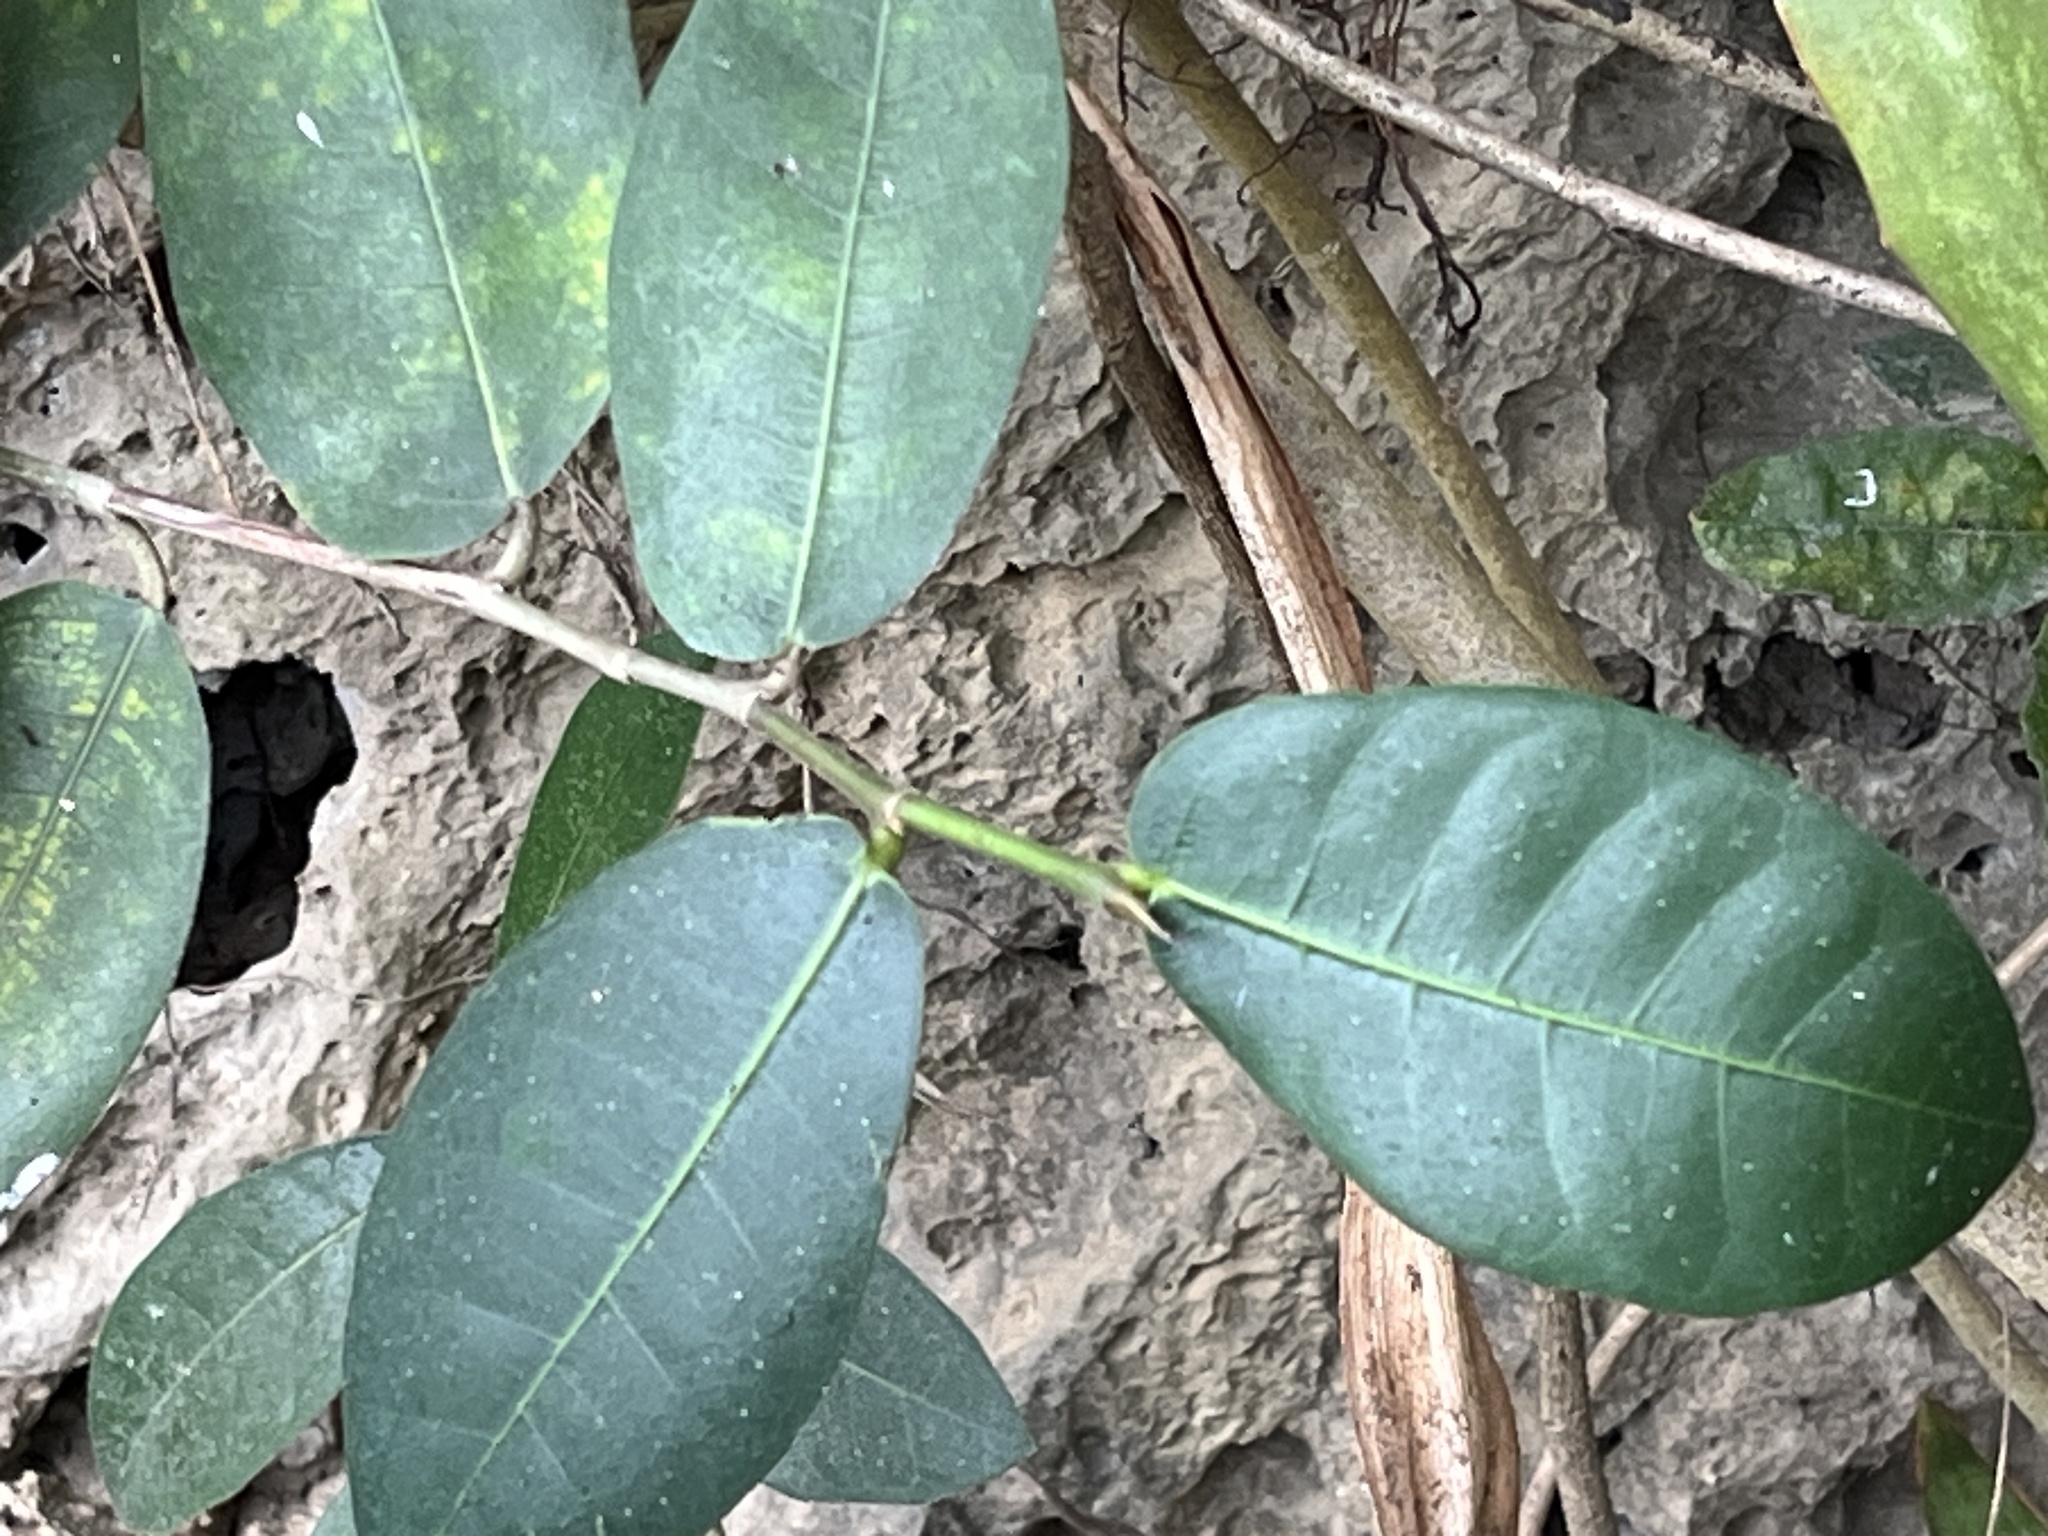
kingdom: Plantae
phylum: Tracheophyta
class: Magnoliopsida
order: Rosales
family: Moraceae
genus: Ficus
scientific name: Ficus tinctoria
